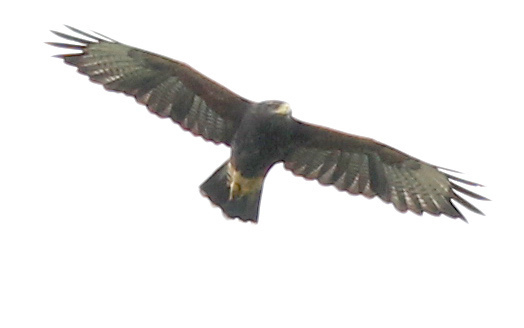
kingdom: Animalia
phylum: Chordata
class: Aves
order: Accipitriformes
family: Accipitridae
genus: Parabuteo
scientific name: Parabuteo unicinctus
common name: Harris's hawk
